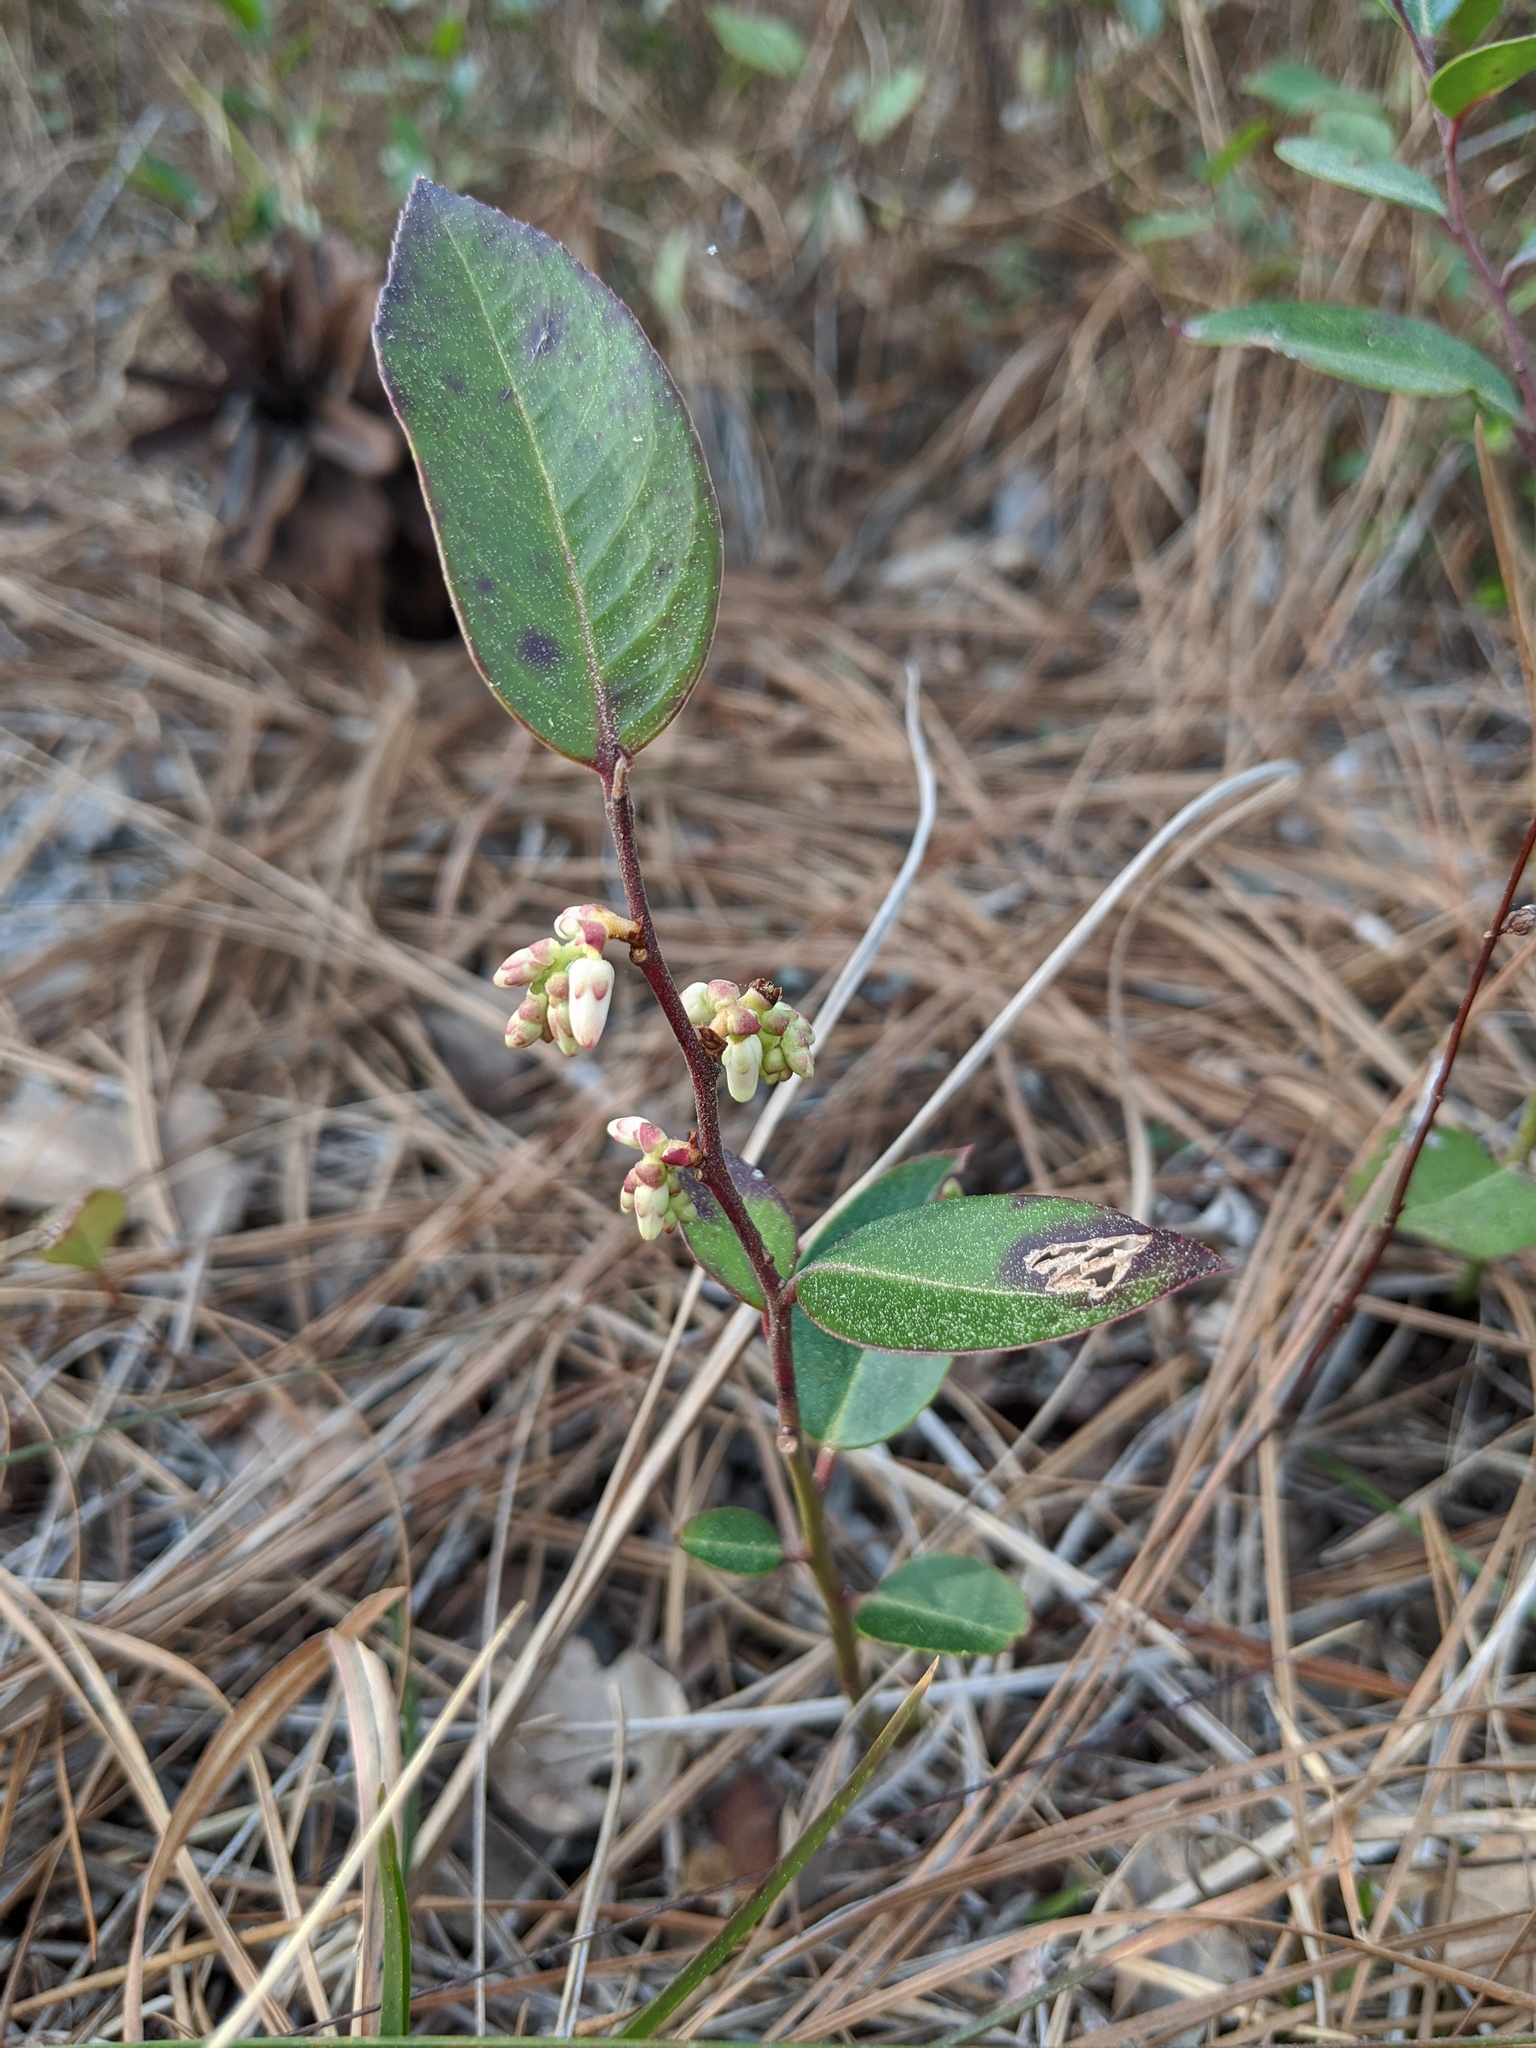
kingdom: Plantae
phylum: Tracheophyta
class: Magnoliopsida
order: Ericales
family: Ericaceae
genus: Leucothoe
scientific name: Leucothoe axillaris
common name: Leucothoe
